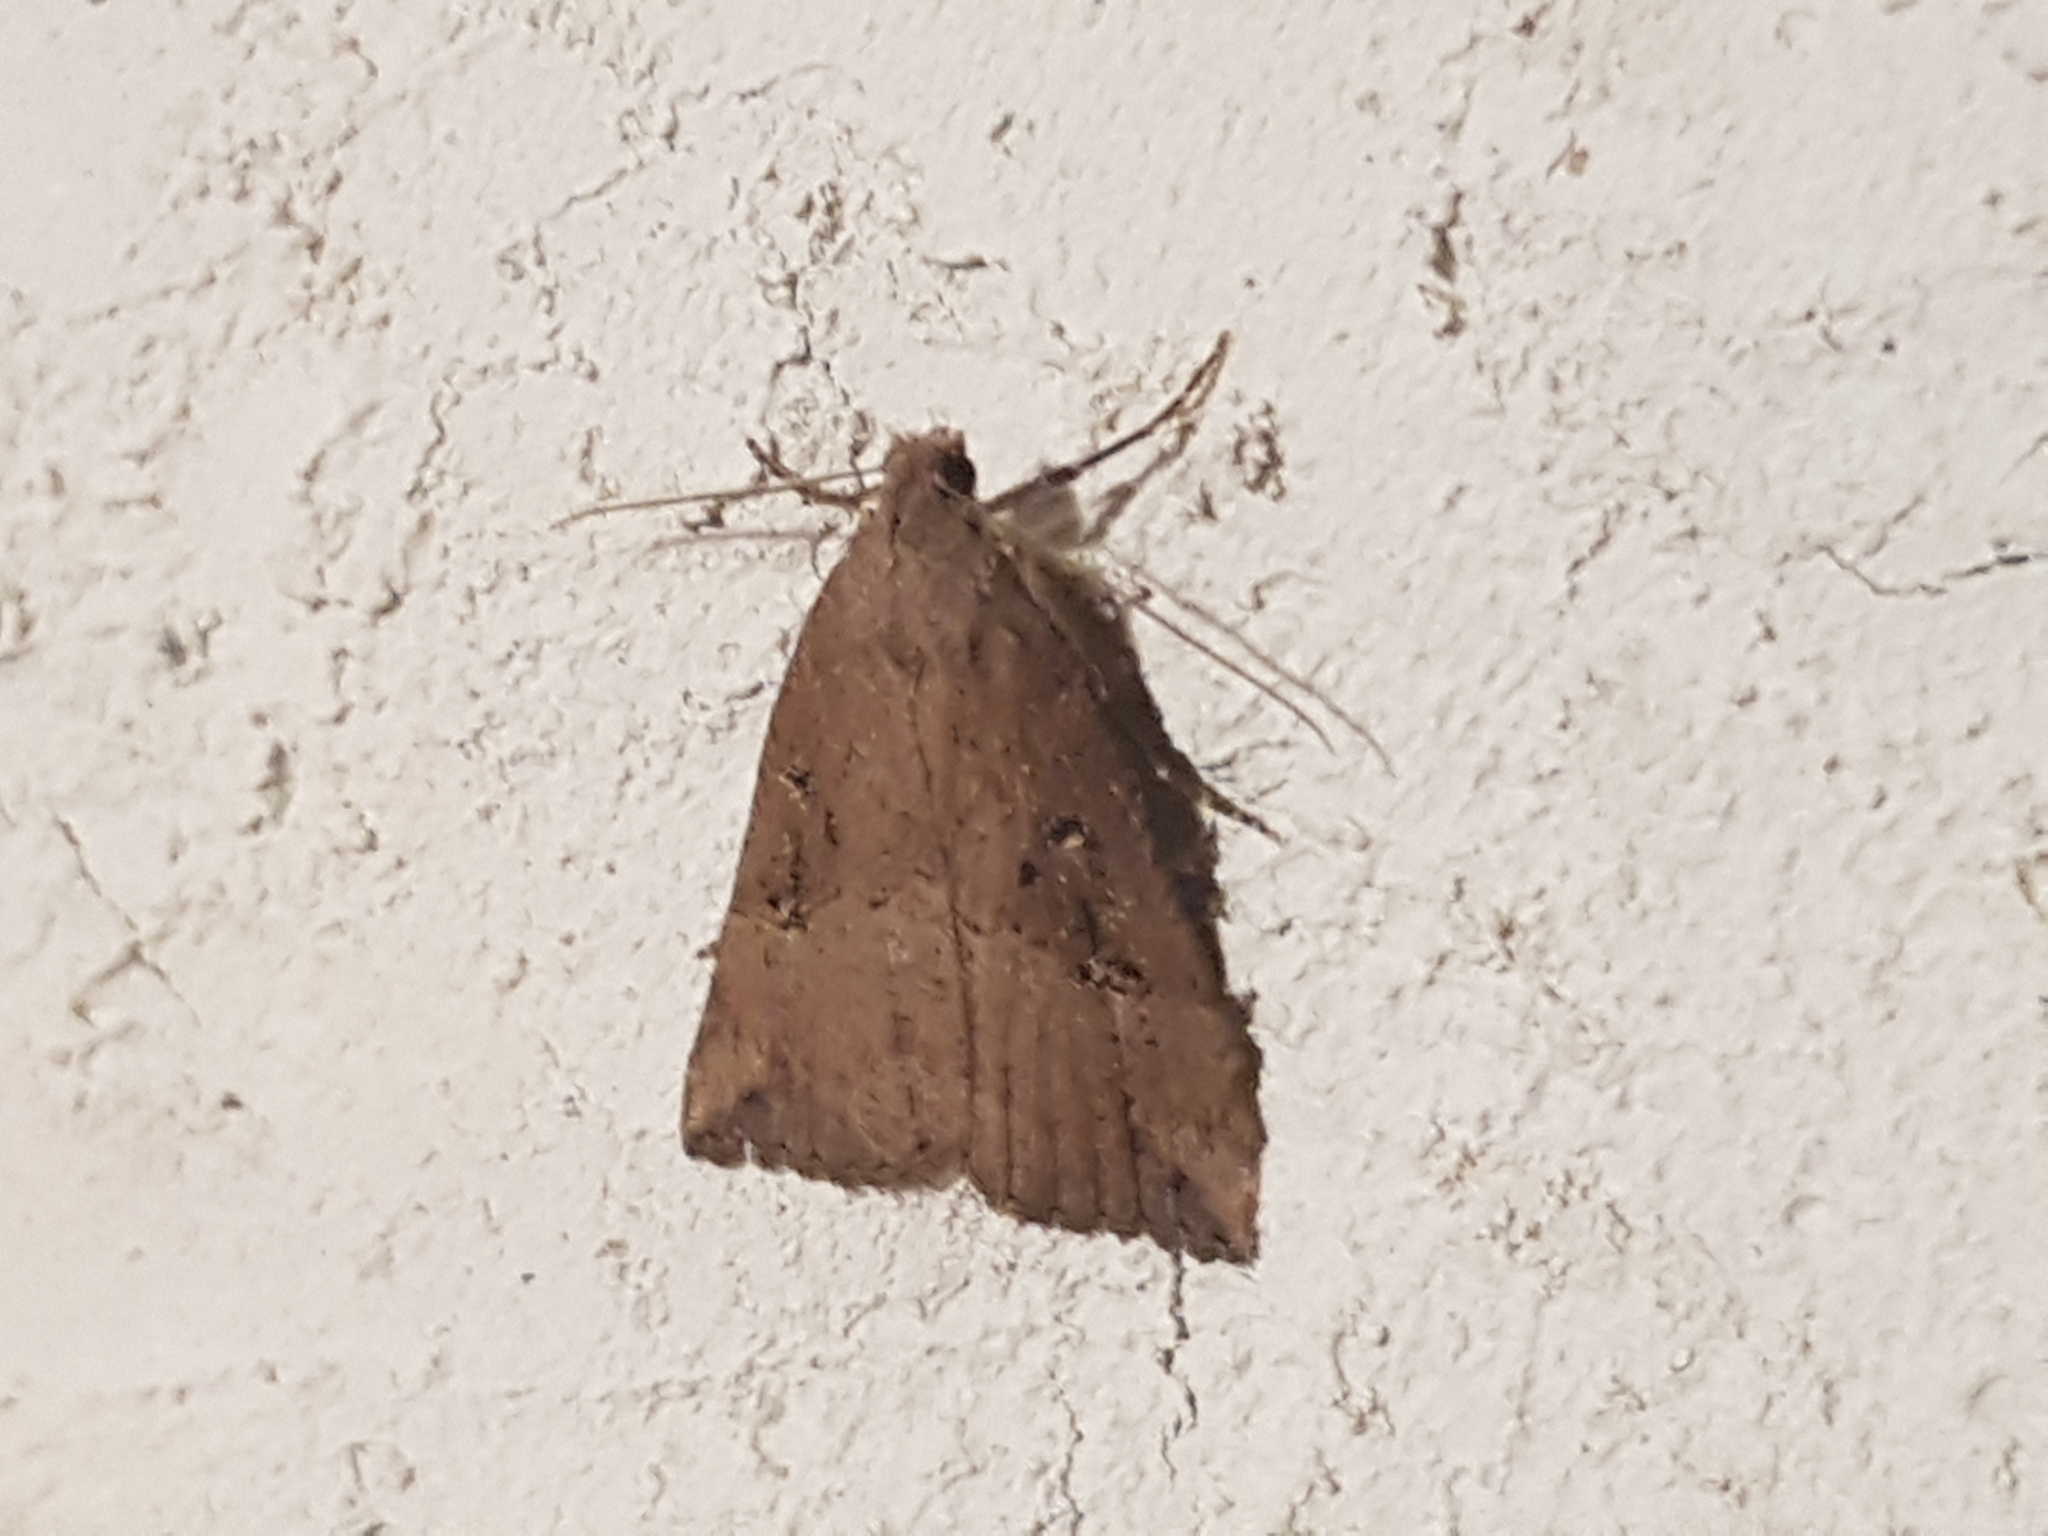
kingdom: Animalia
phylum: Arthropoda
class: Insecta
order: Lepidoptera
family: Erebidae
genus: Hypena
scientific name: Hypena rostralis
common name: Buttoned snout
